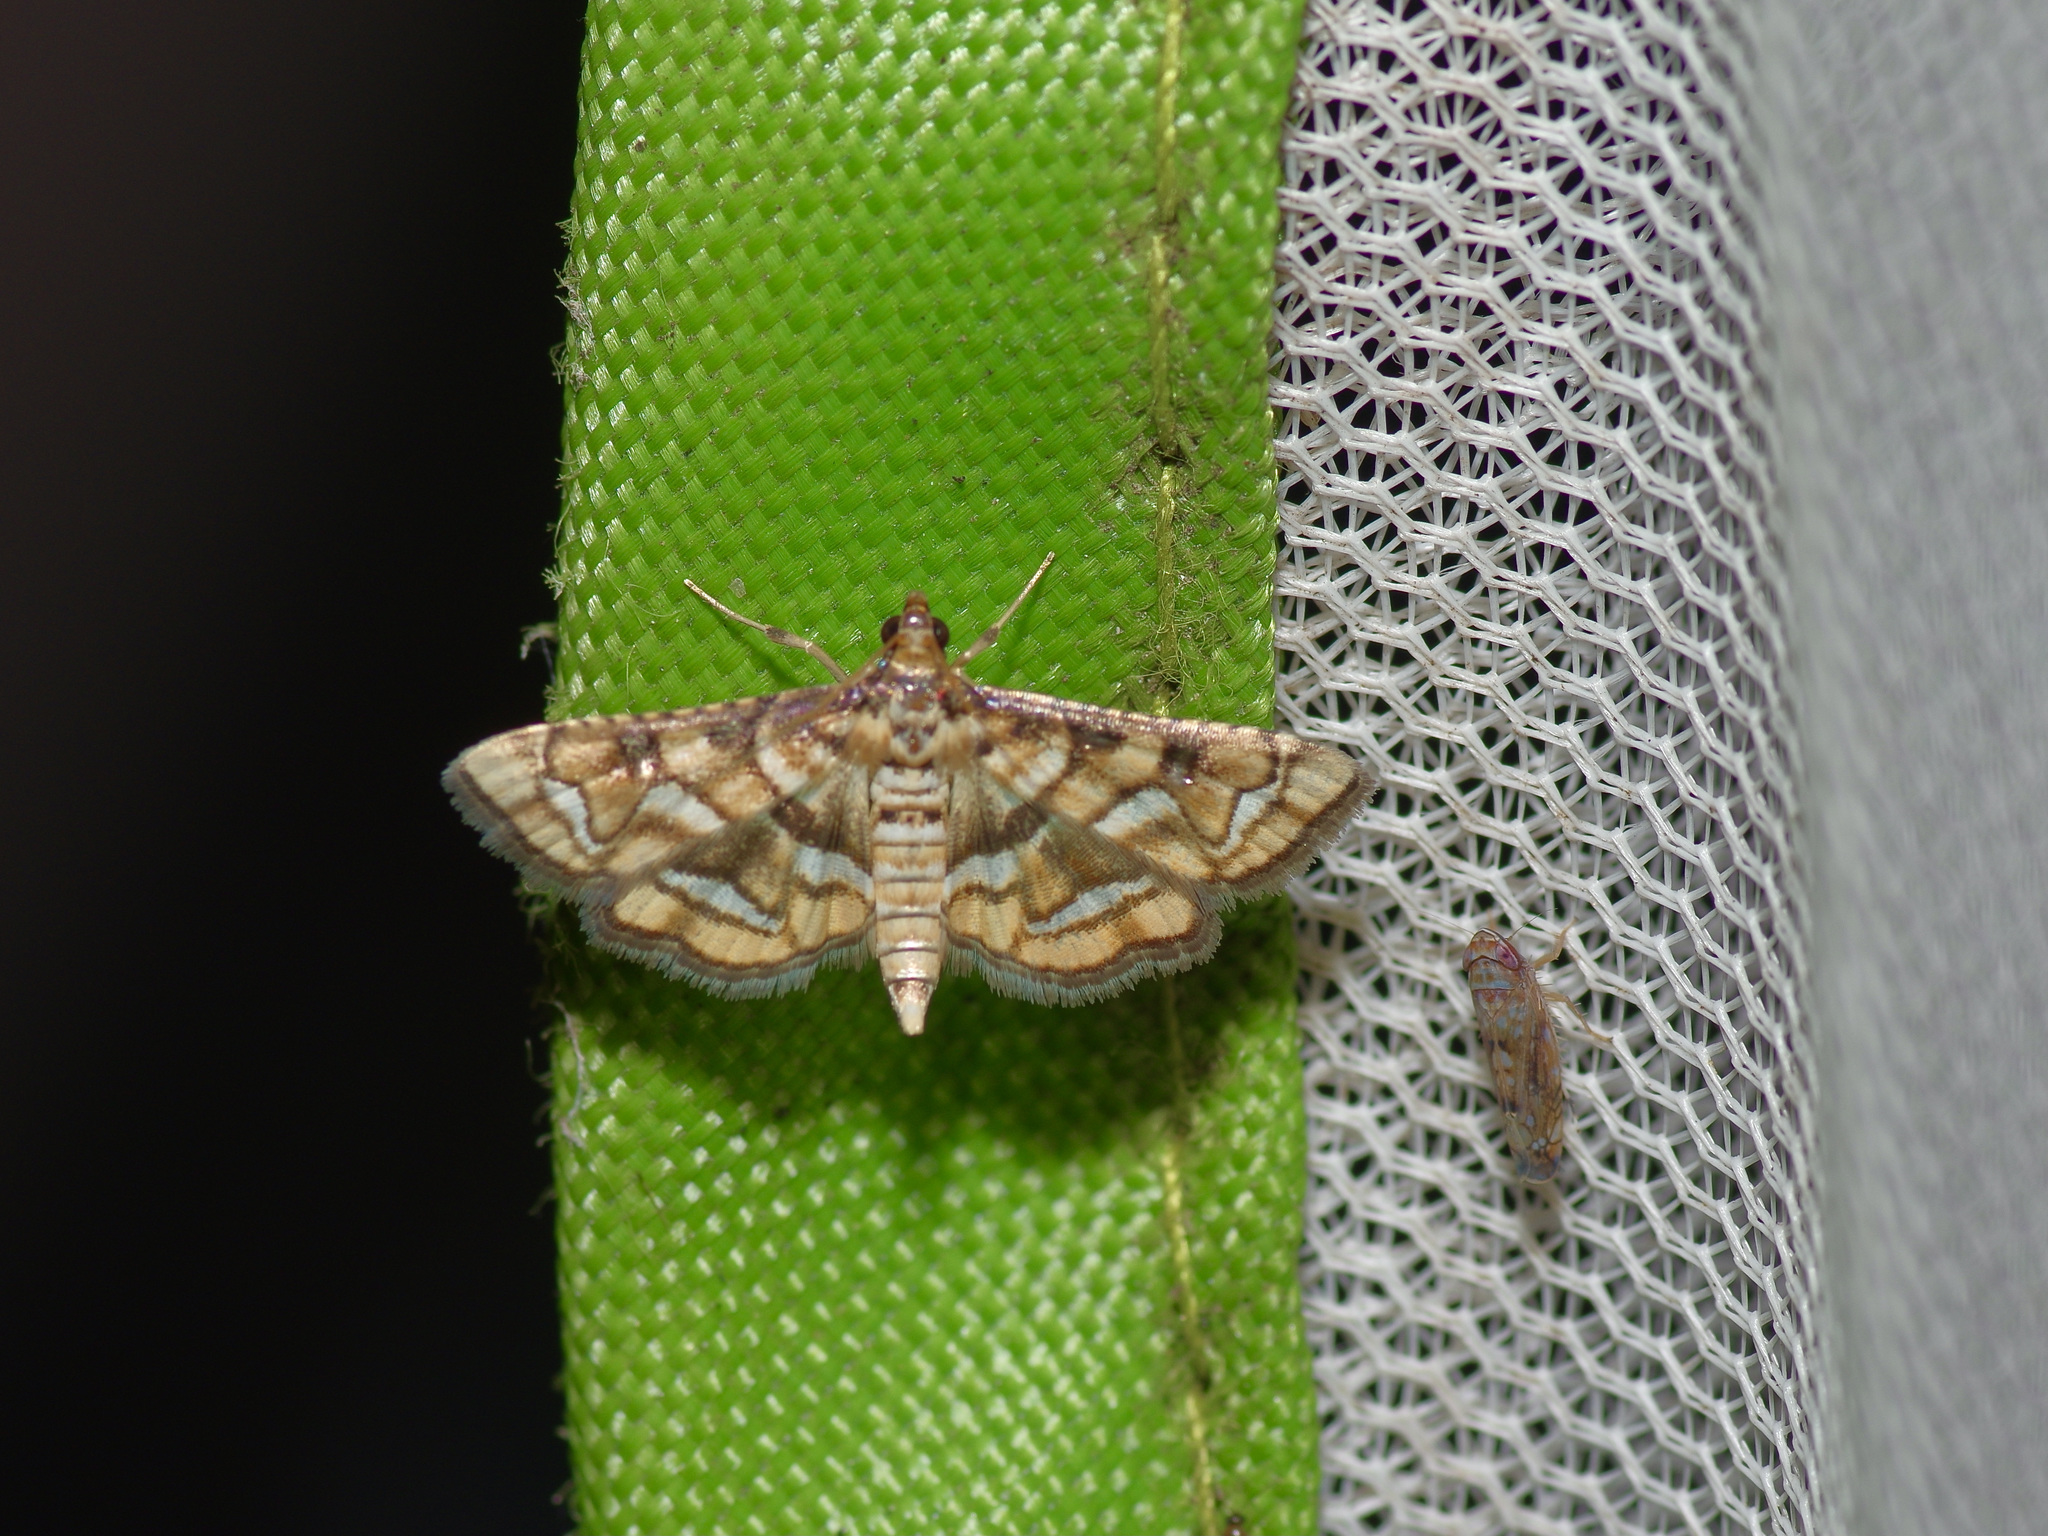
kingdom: Animalia
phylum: Arthropoda
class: Insecta
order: Lepidoptera
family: Crambidae
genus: Hileithia
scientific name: Hileithia magualis
